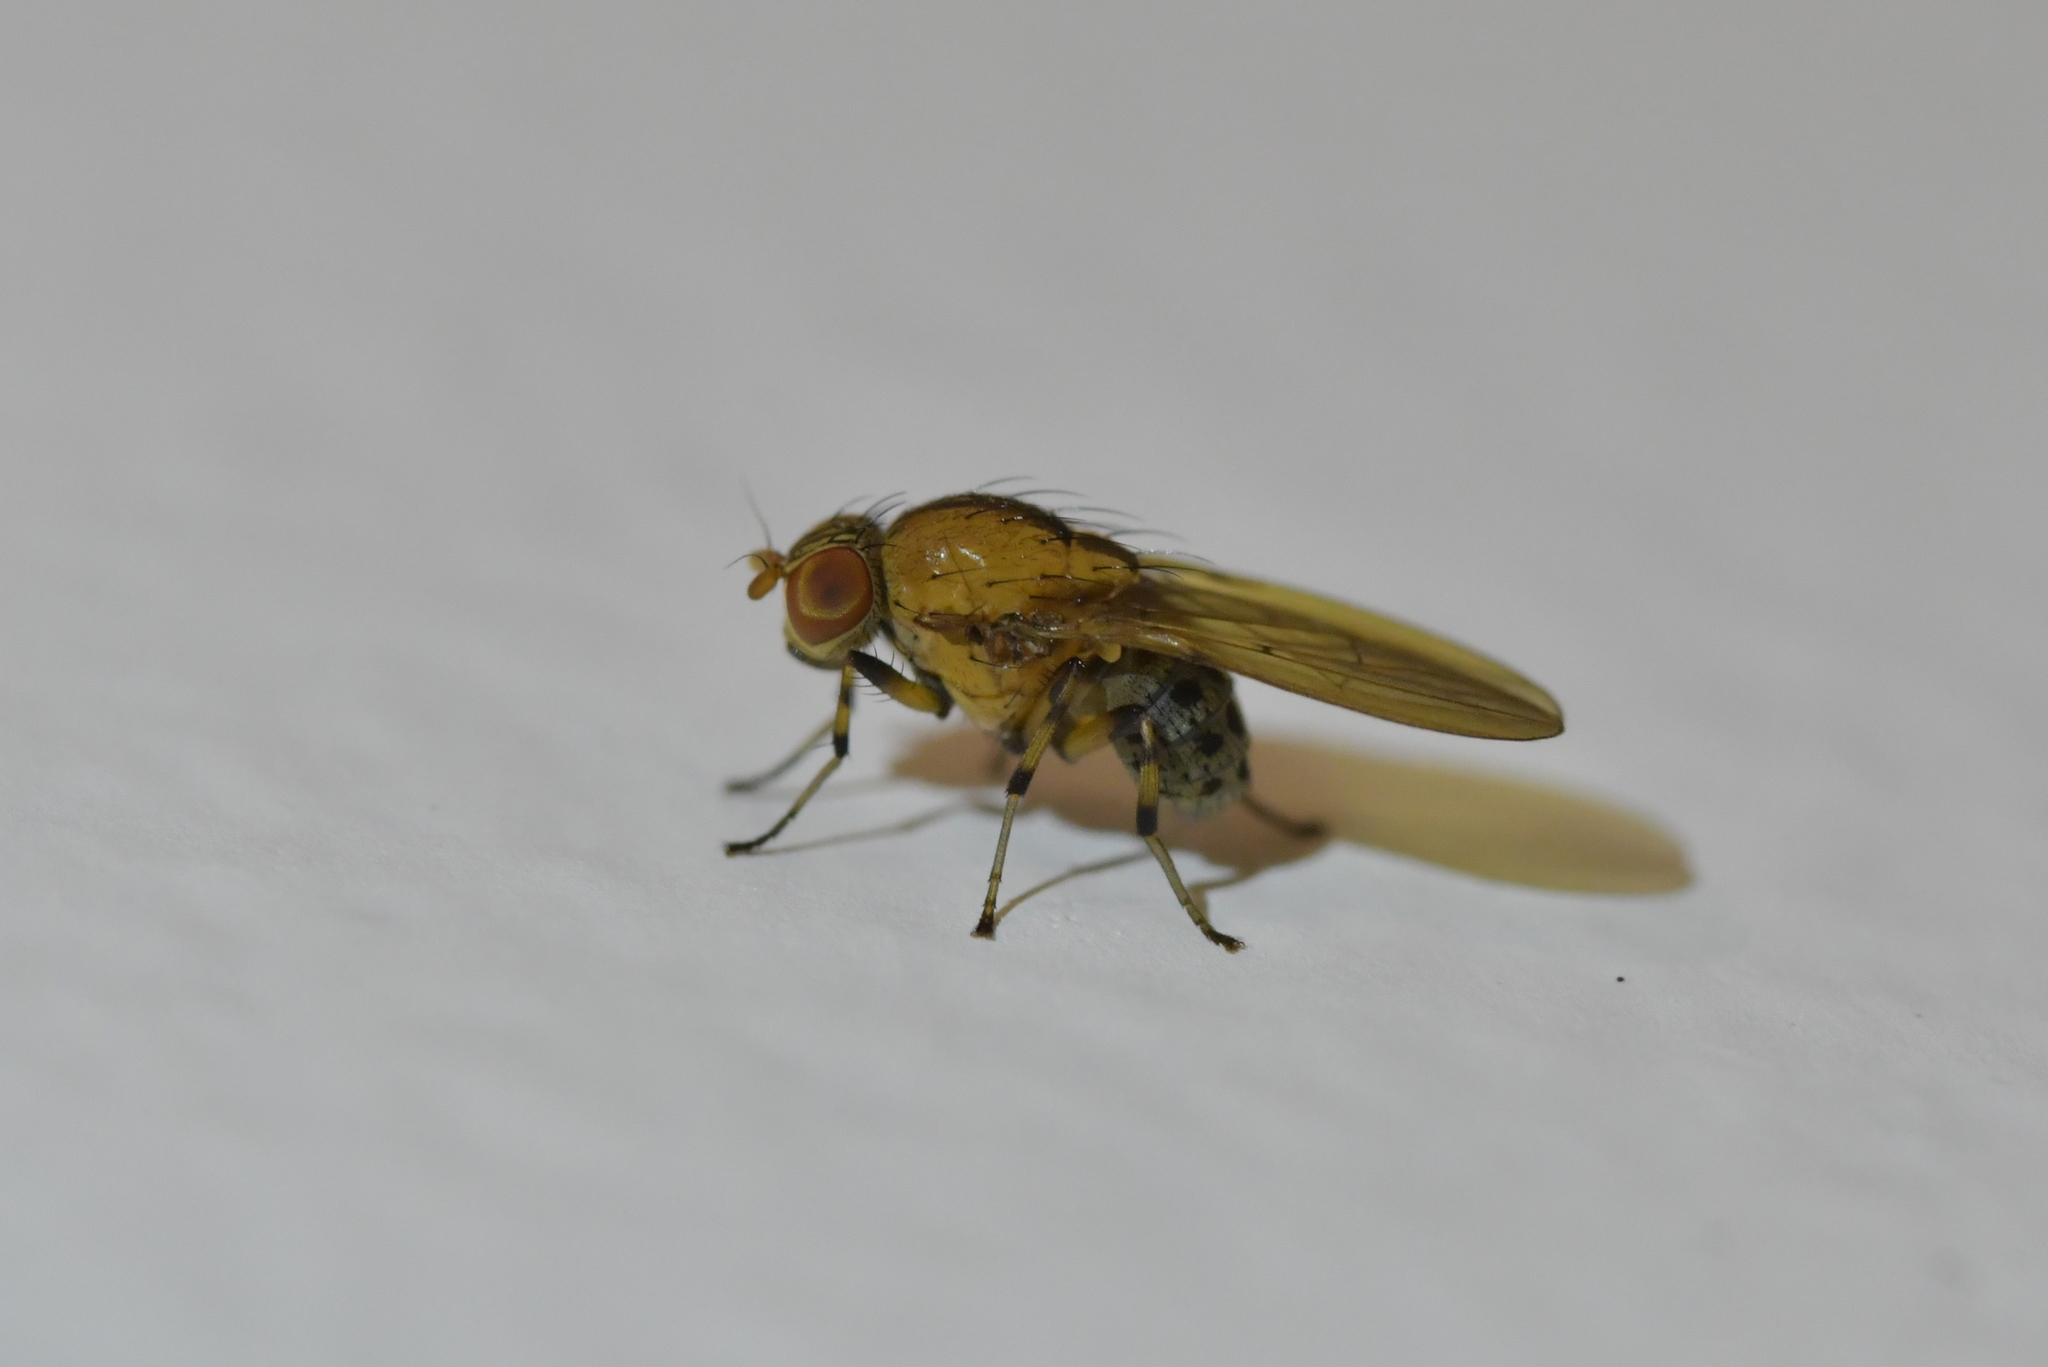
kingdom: Animalia
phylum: Arthropoda
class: Insecta
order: Diptera
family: Lauxaniidae
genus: Sapromyza
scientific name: Sapromyza neozelandica
